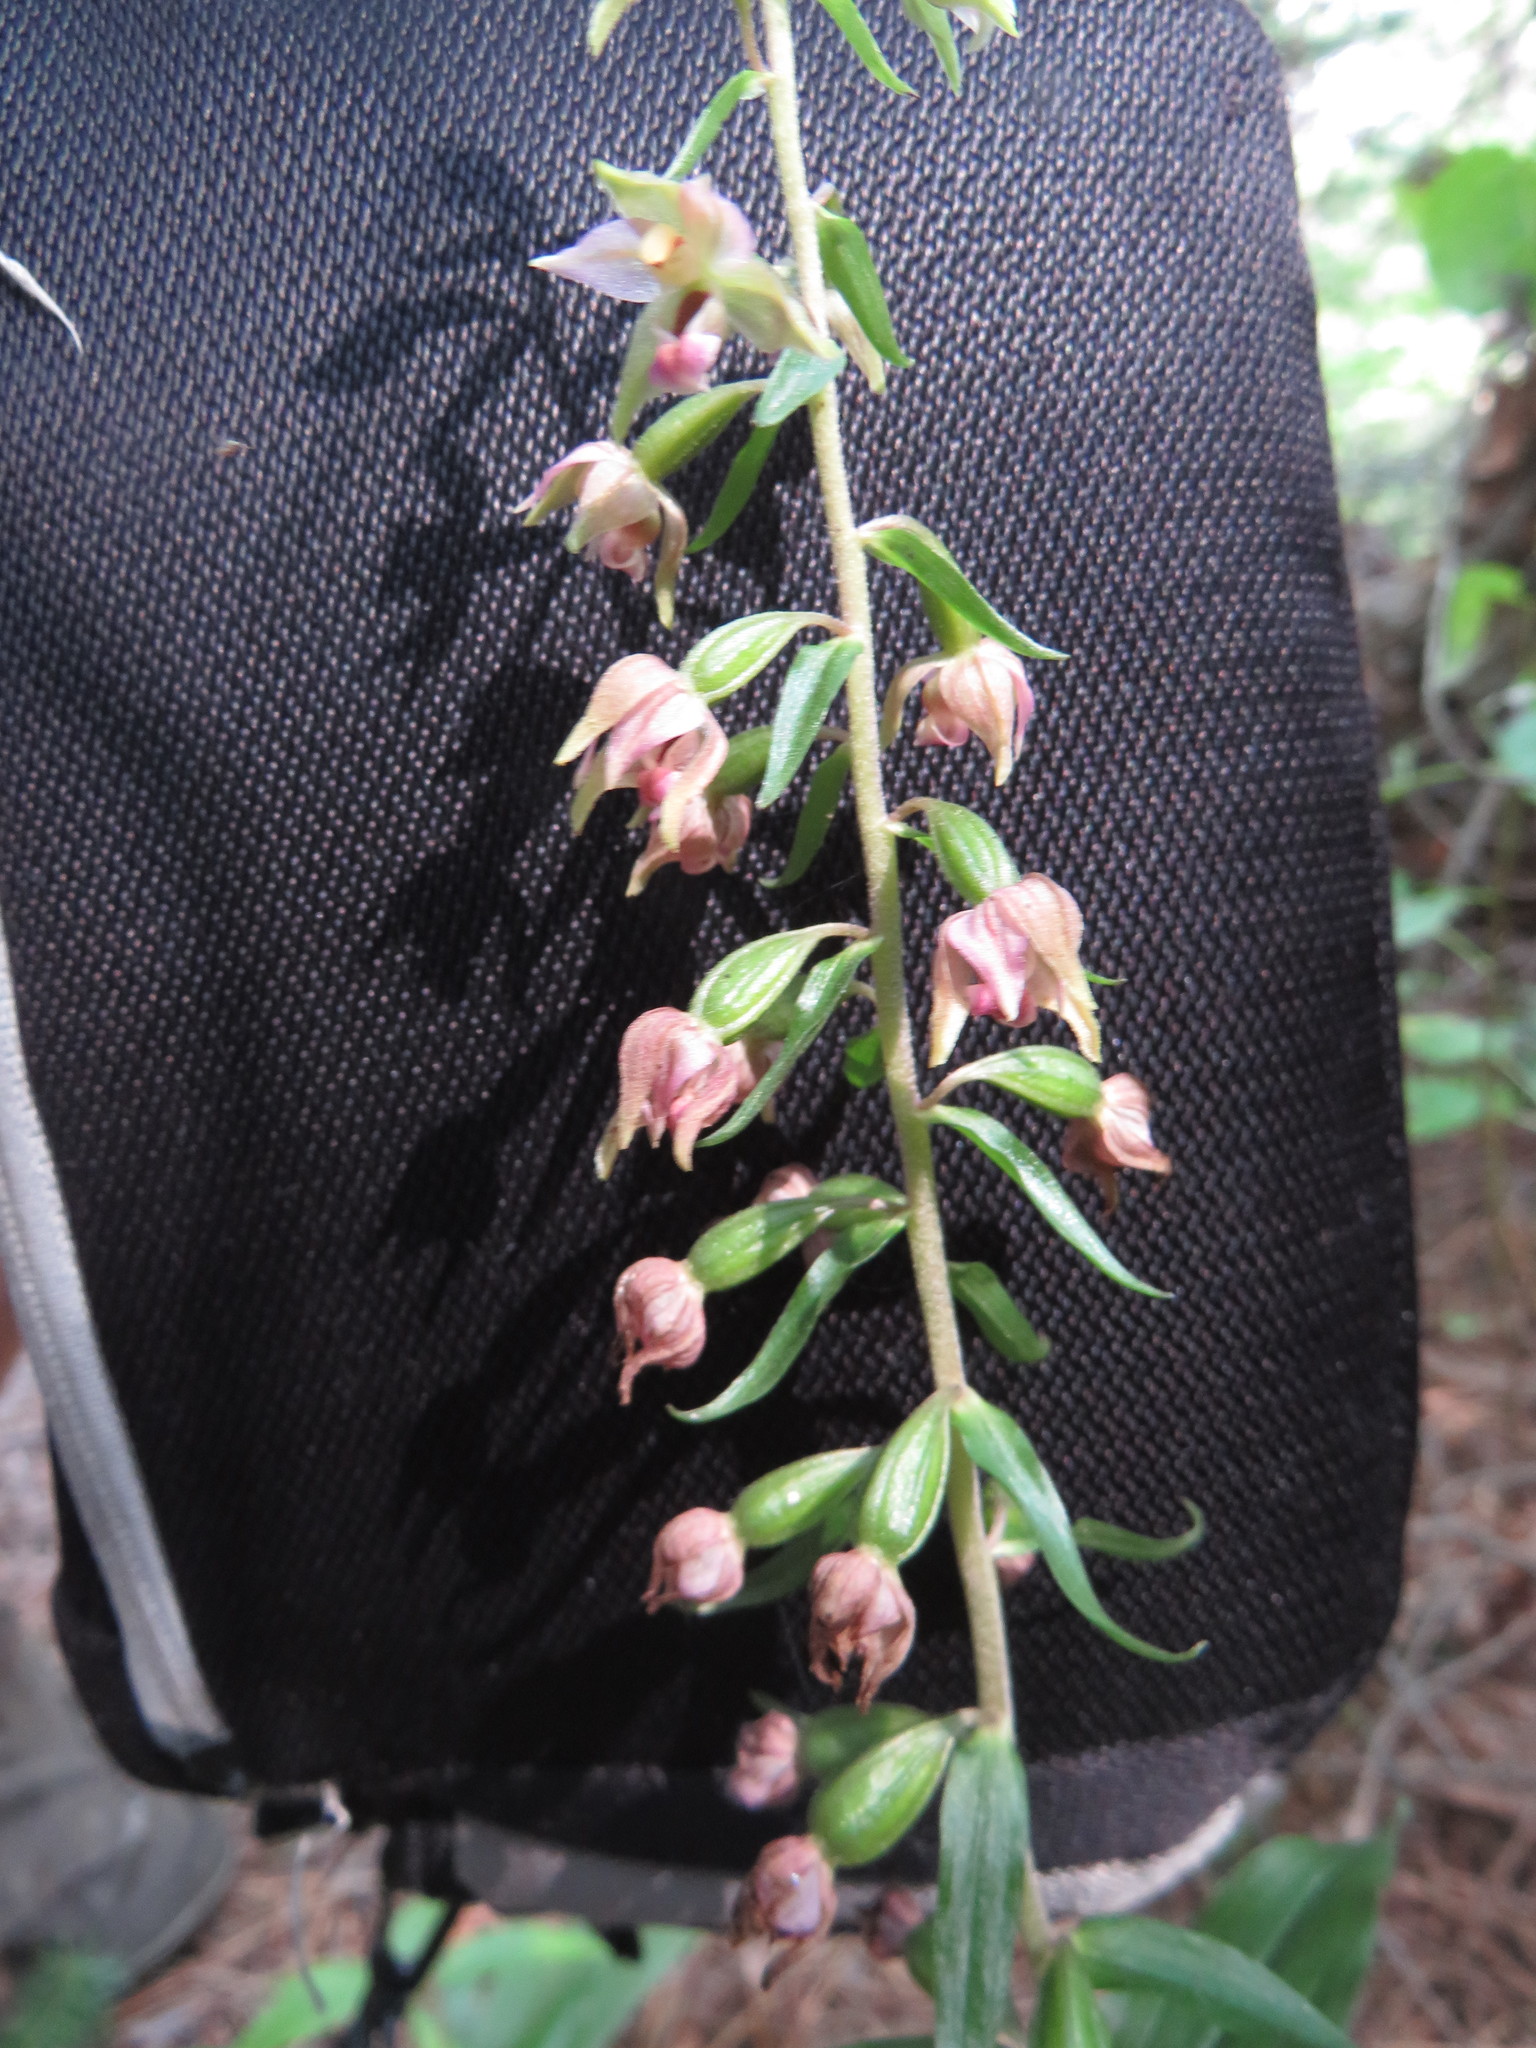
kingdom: Plantae
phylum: Tracheophyta
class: Liliopsida
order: Asparagales
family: Orchidaceae
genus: Epipactis
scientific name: Epipactis helleborine
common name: Broad-leaved helleborine
